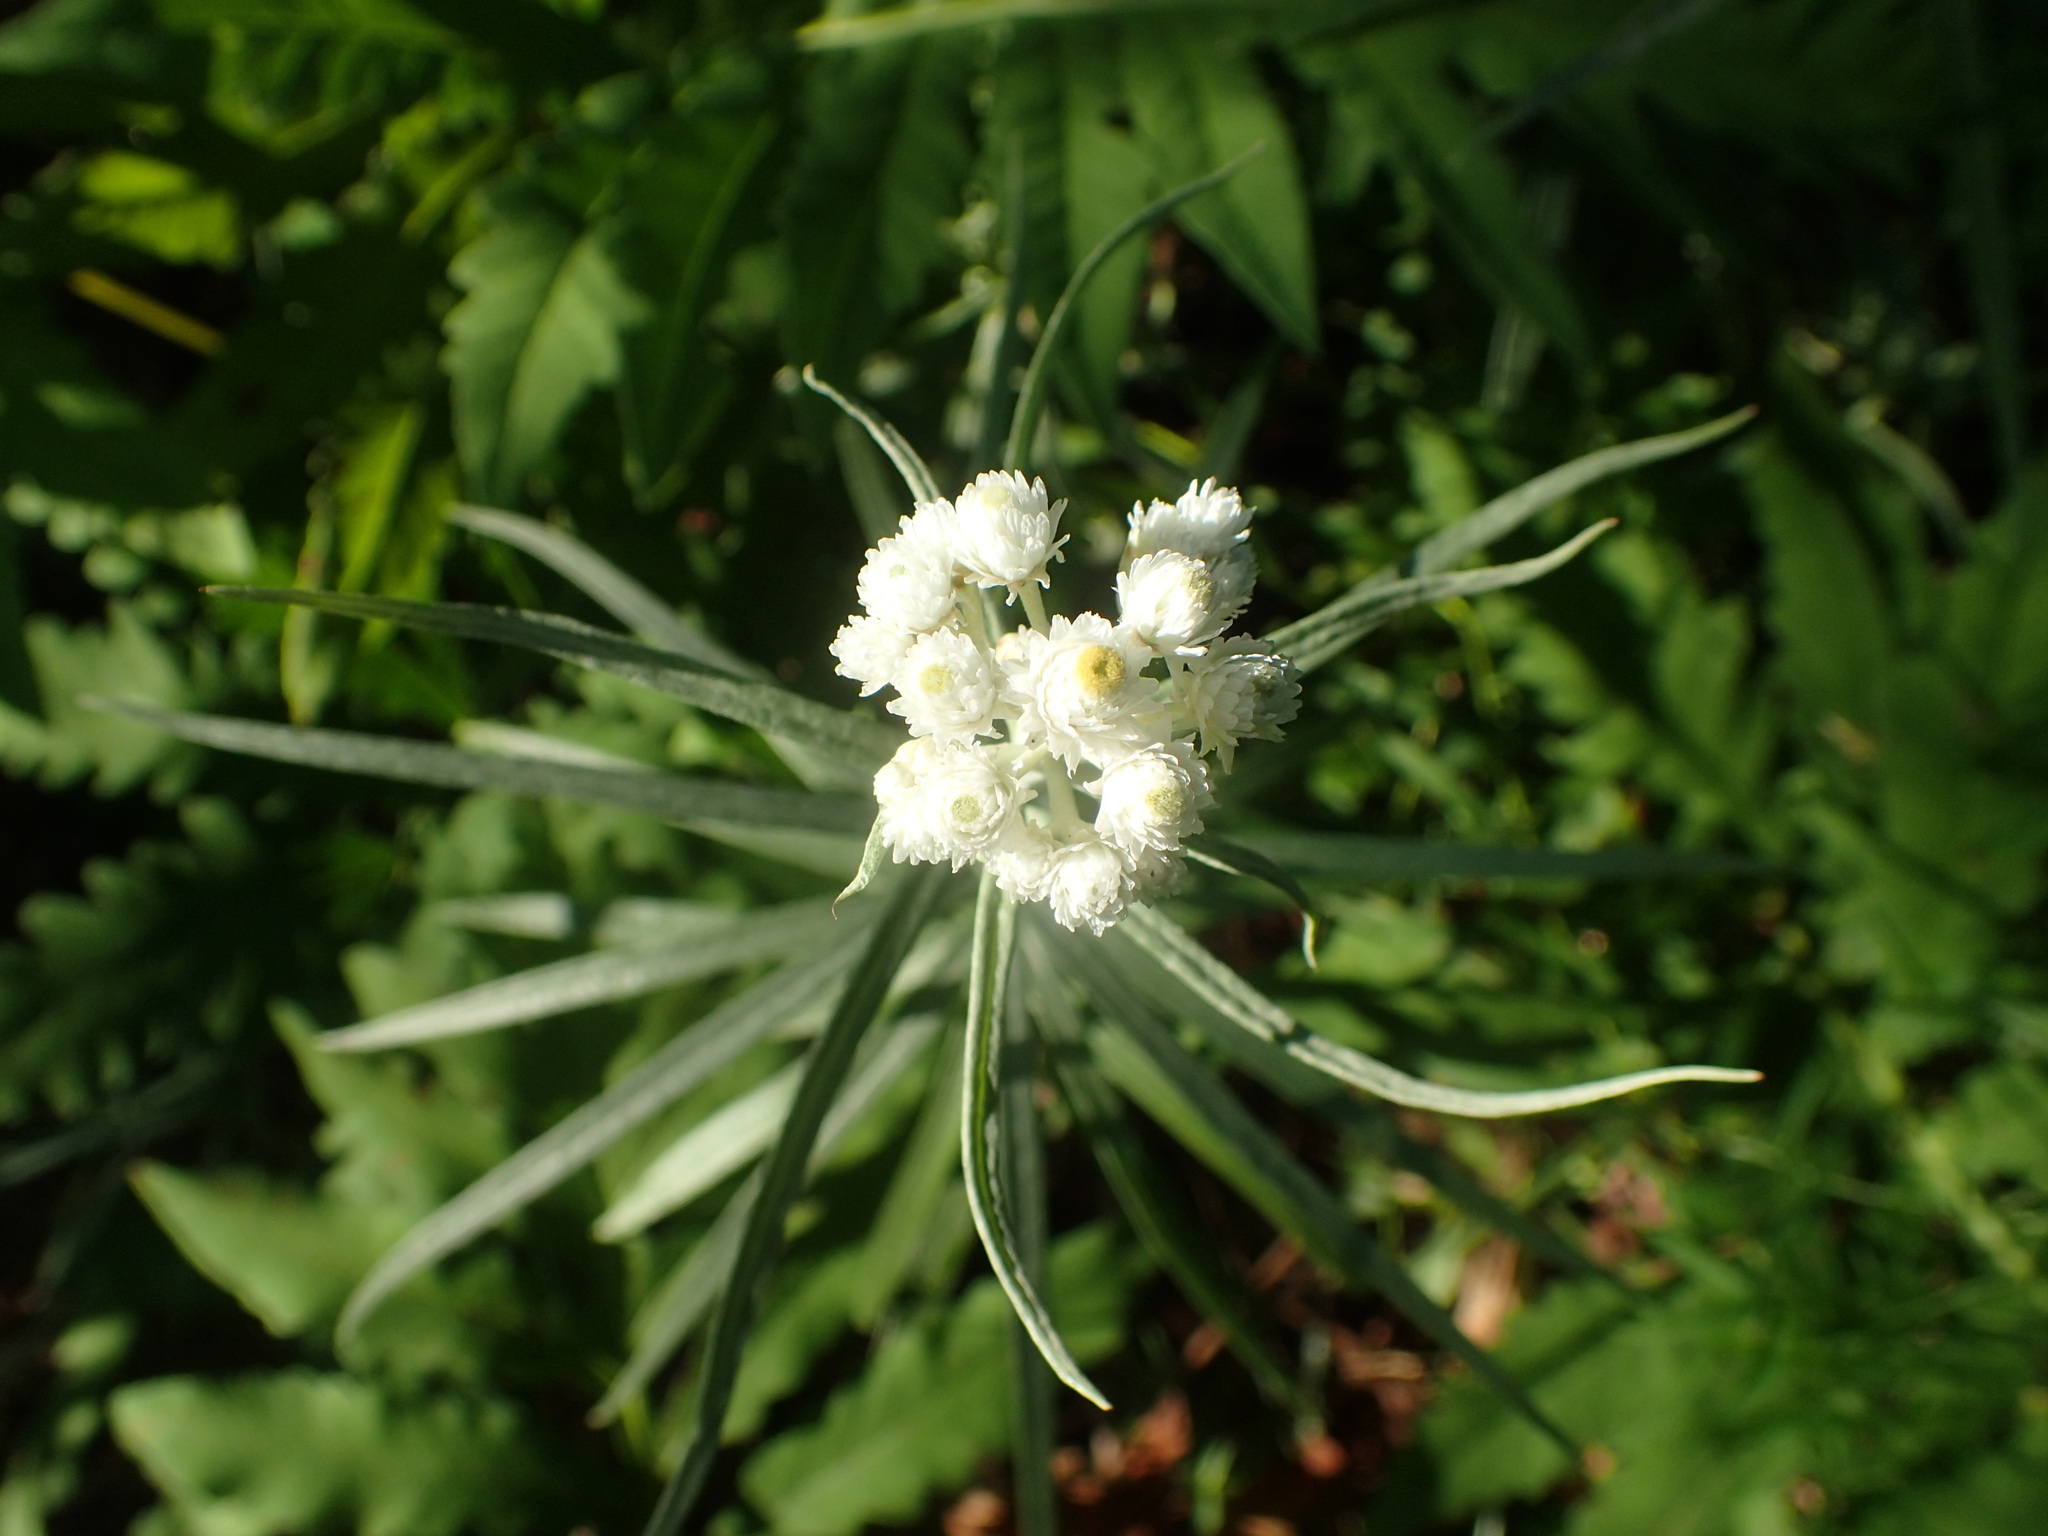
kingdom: Plantae
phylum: Tracheophyta
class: Magnoliopsida
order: Asterales
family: Asteraceae
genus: Anaphalis
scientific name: Anaphalis margaritacea
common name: Pearly everlasting
